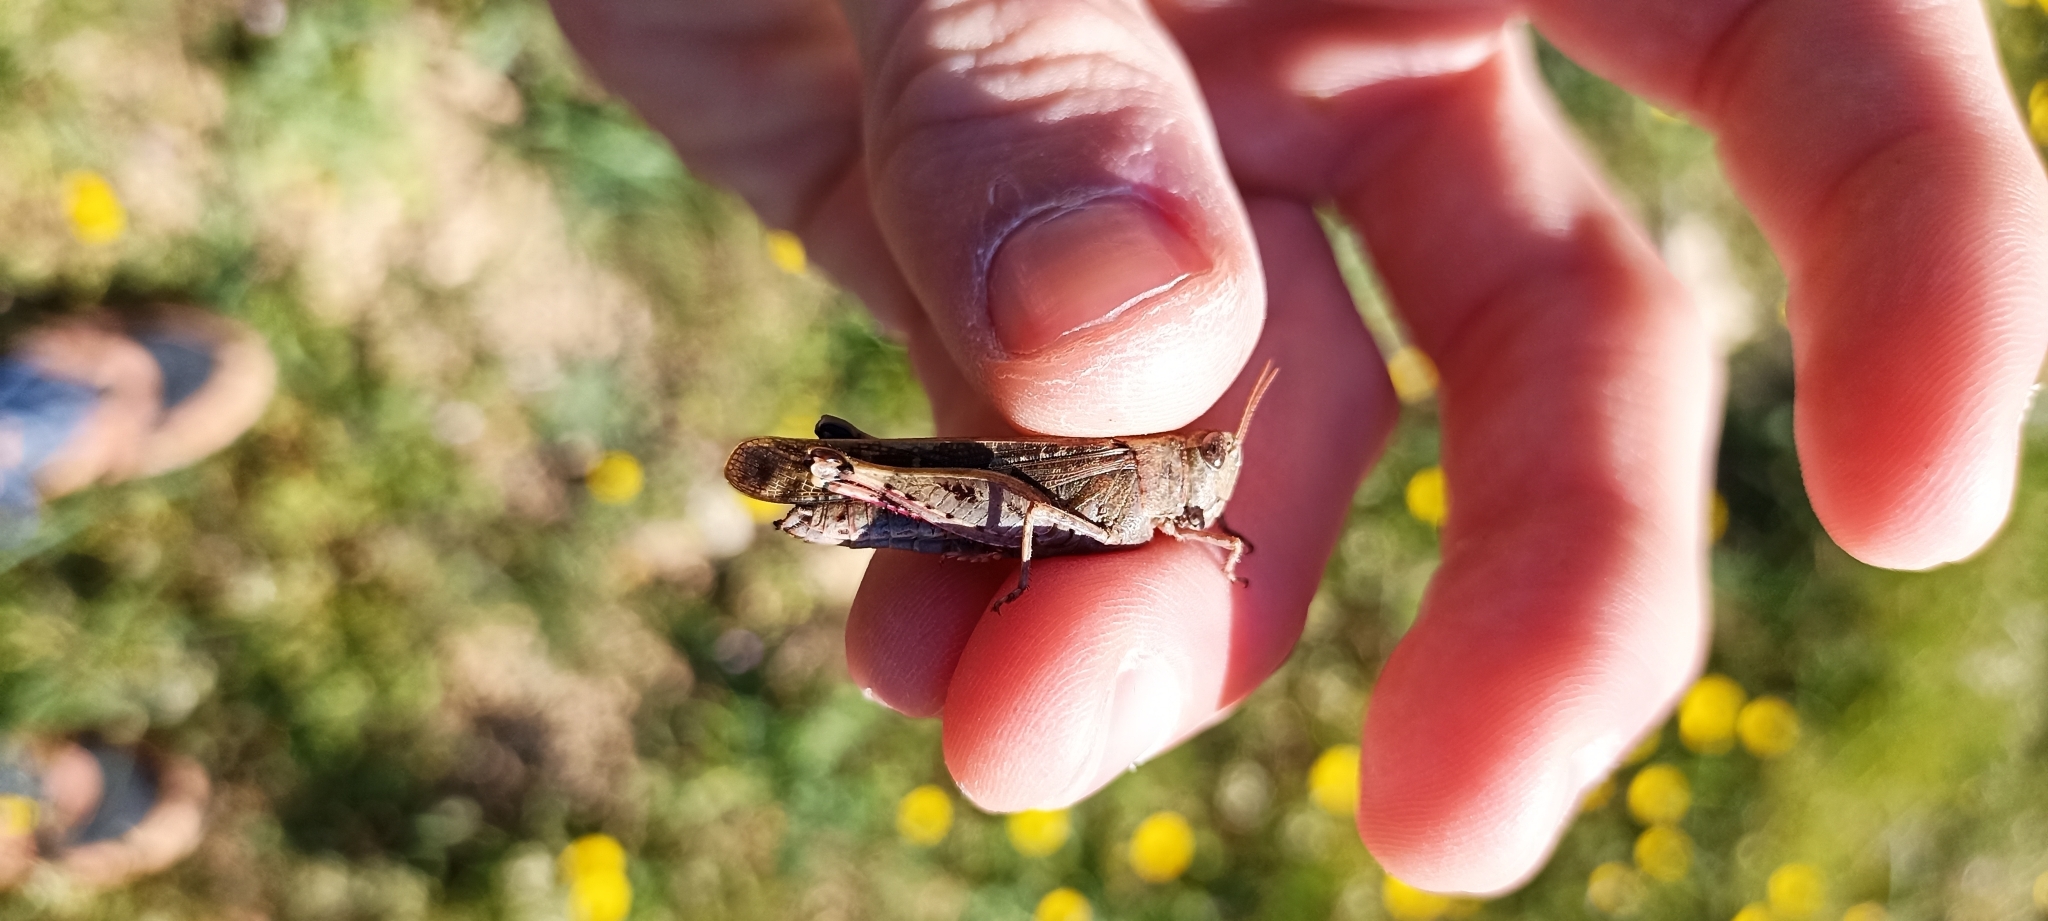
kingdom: Animalia
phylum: Arthropoda
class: Insecta
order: Orthoptera
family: Acrididae
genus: Aiolopus
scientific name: Aiolopus strepens
